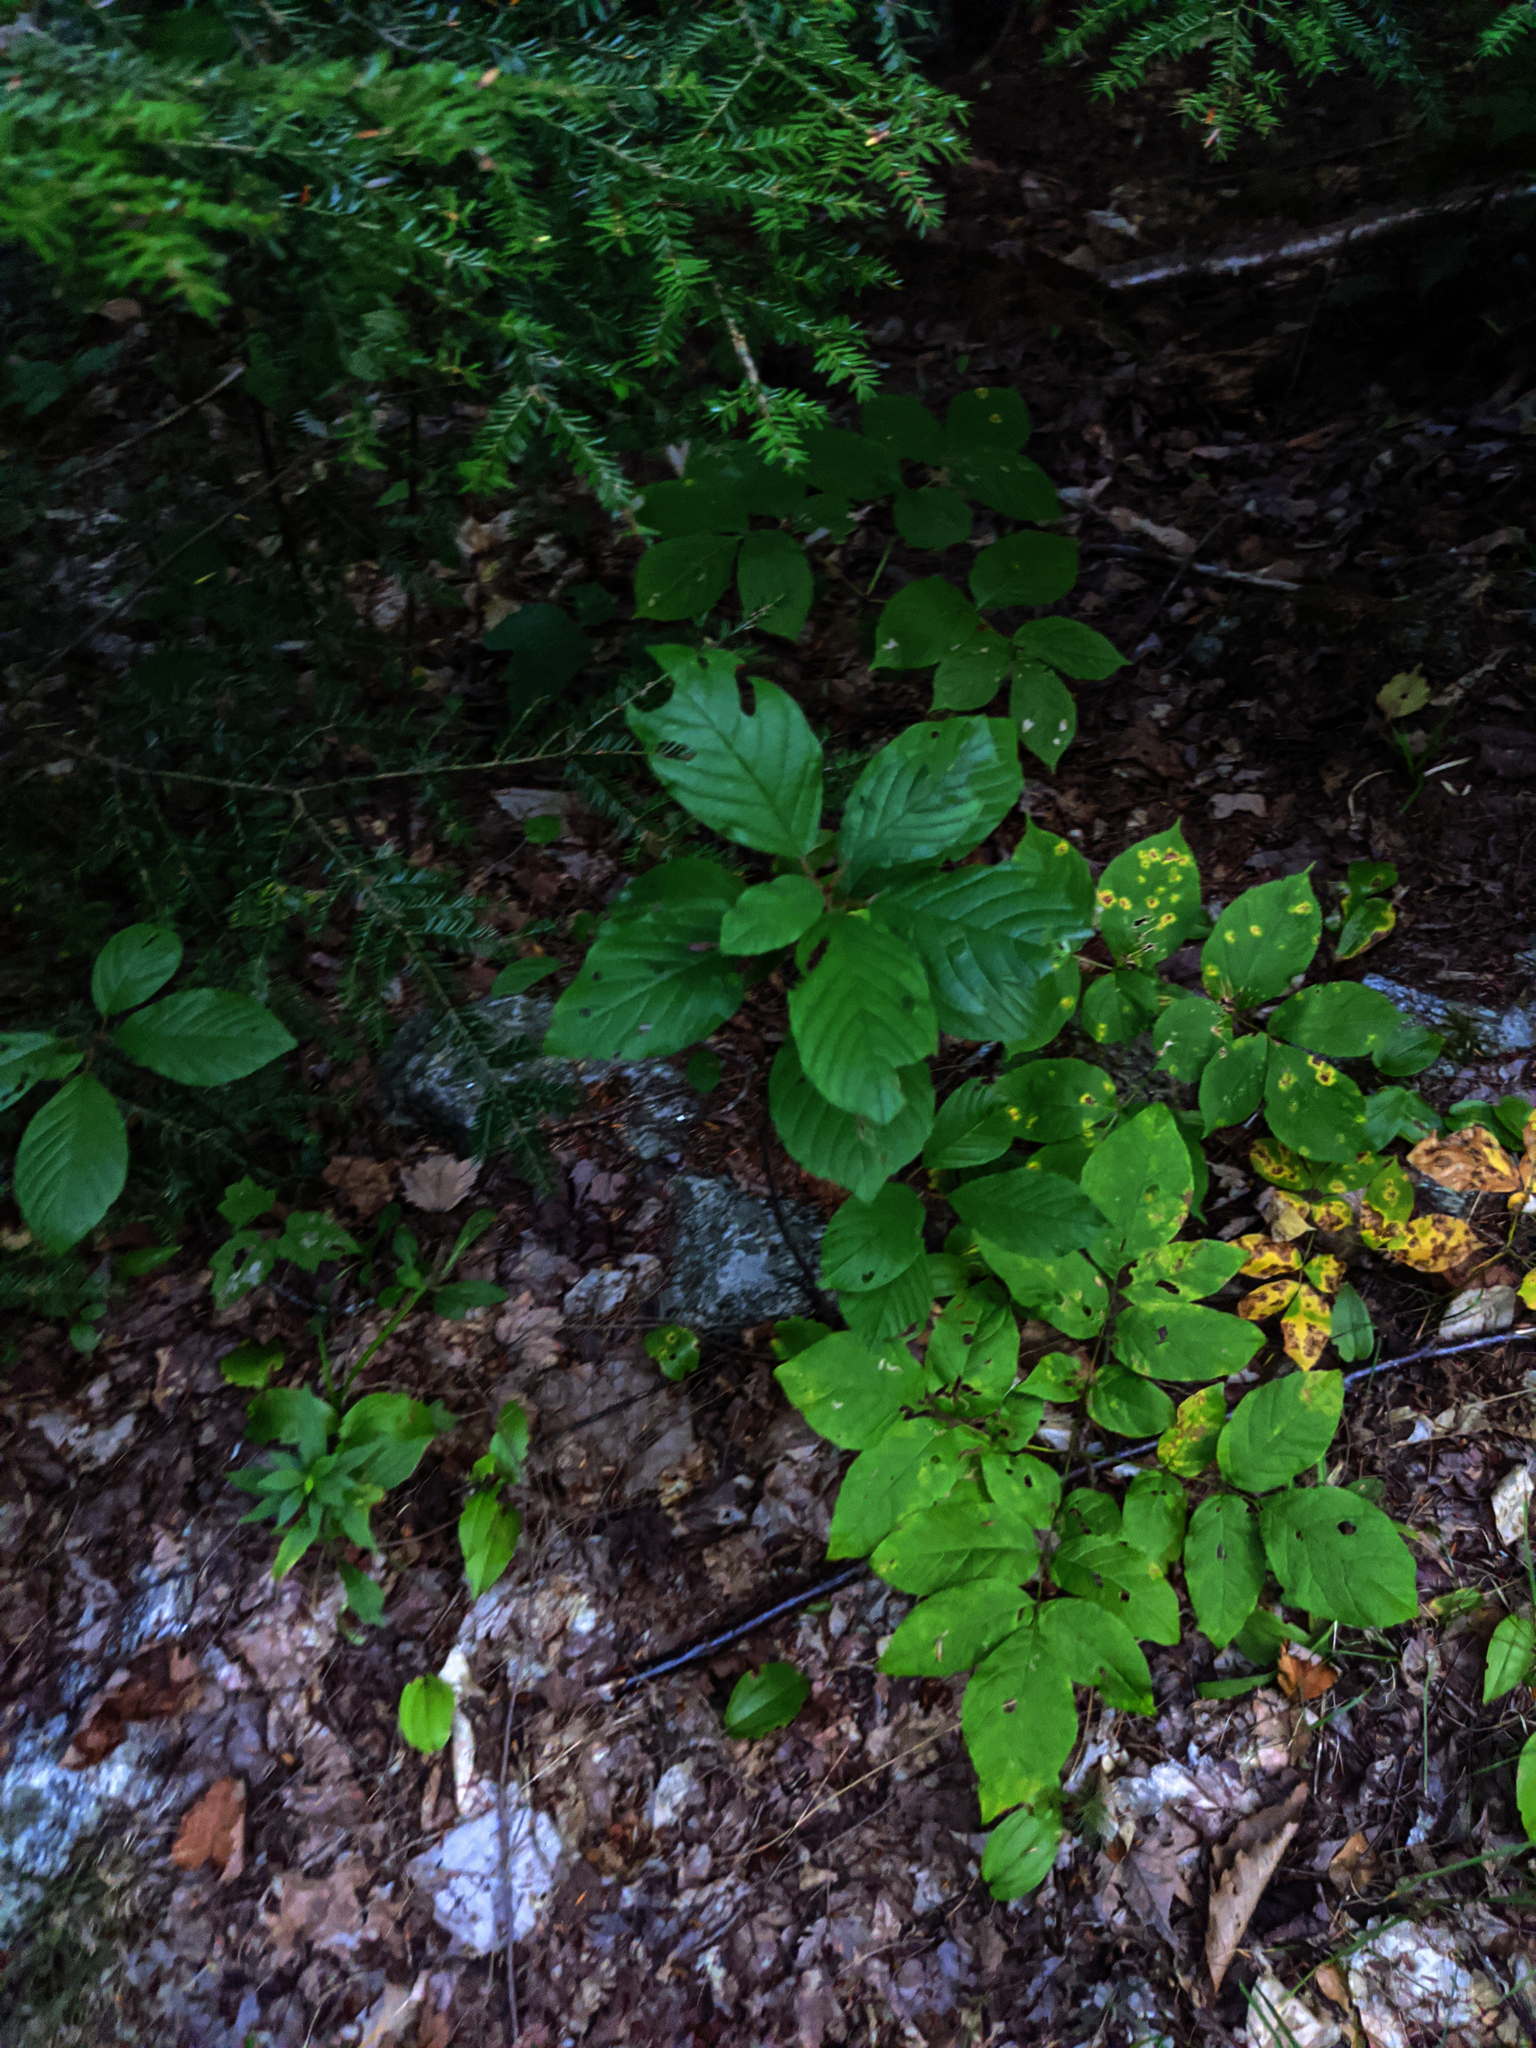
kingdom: Plantae
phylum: Tracheophyta
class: Magnoliopsida
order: Rosales
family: Rhamnaceae
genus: Frangula
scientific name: Frangula alnus
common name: Alder buckthorn
